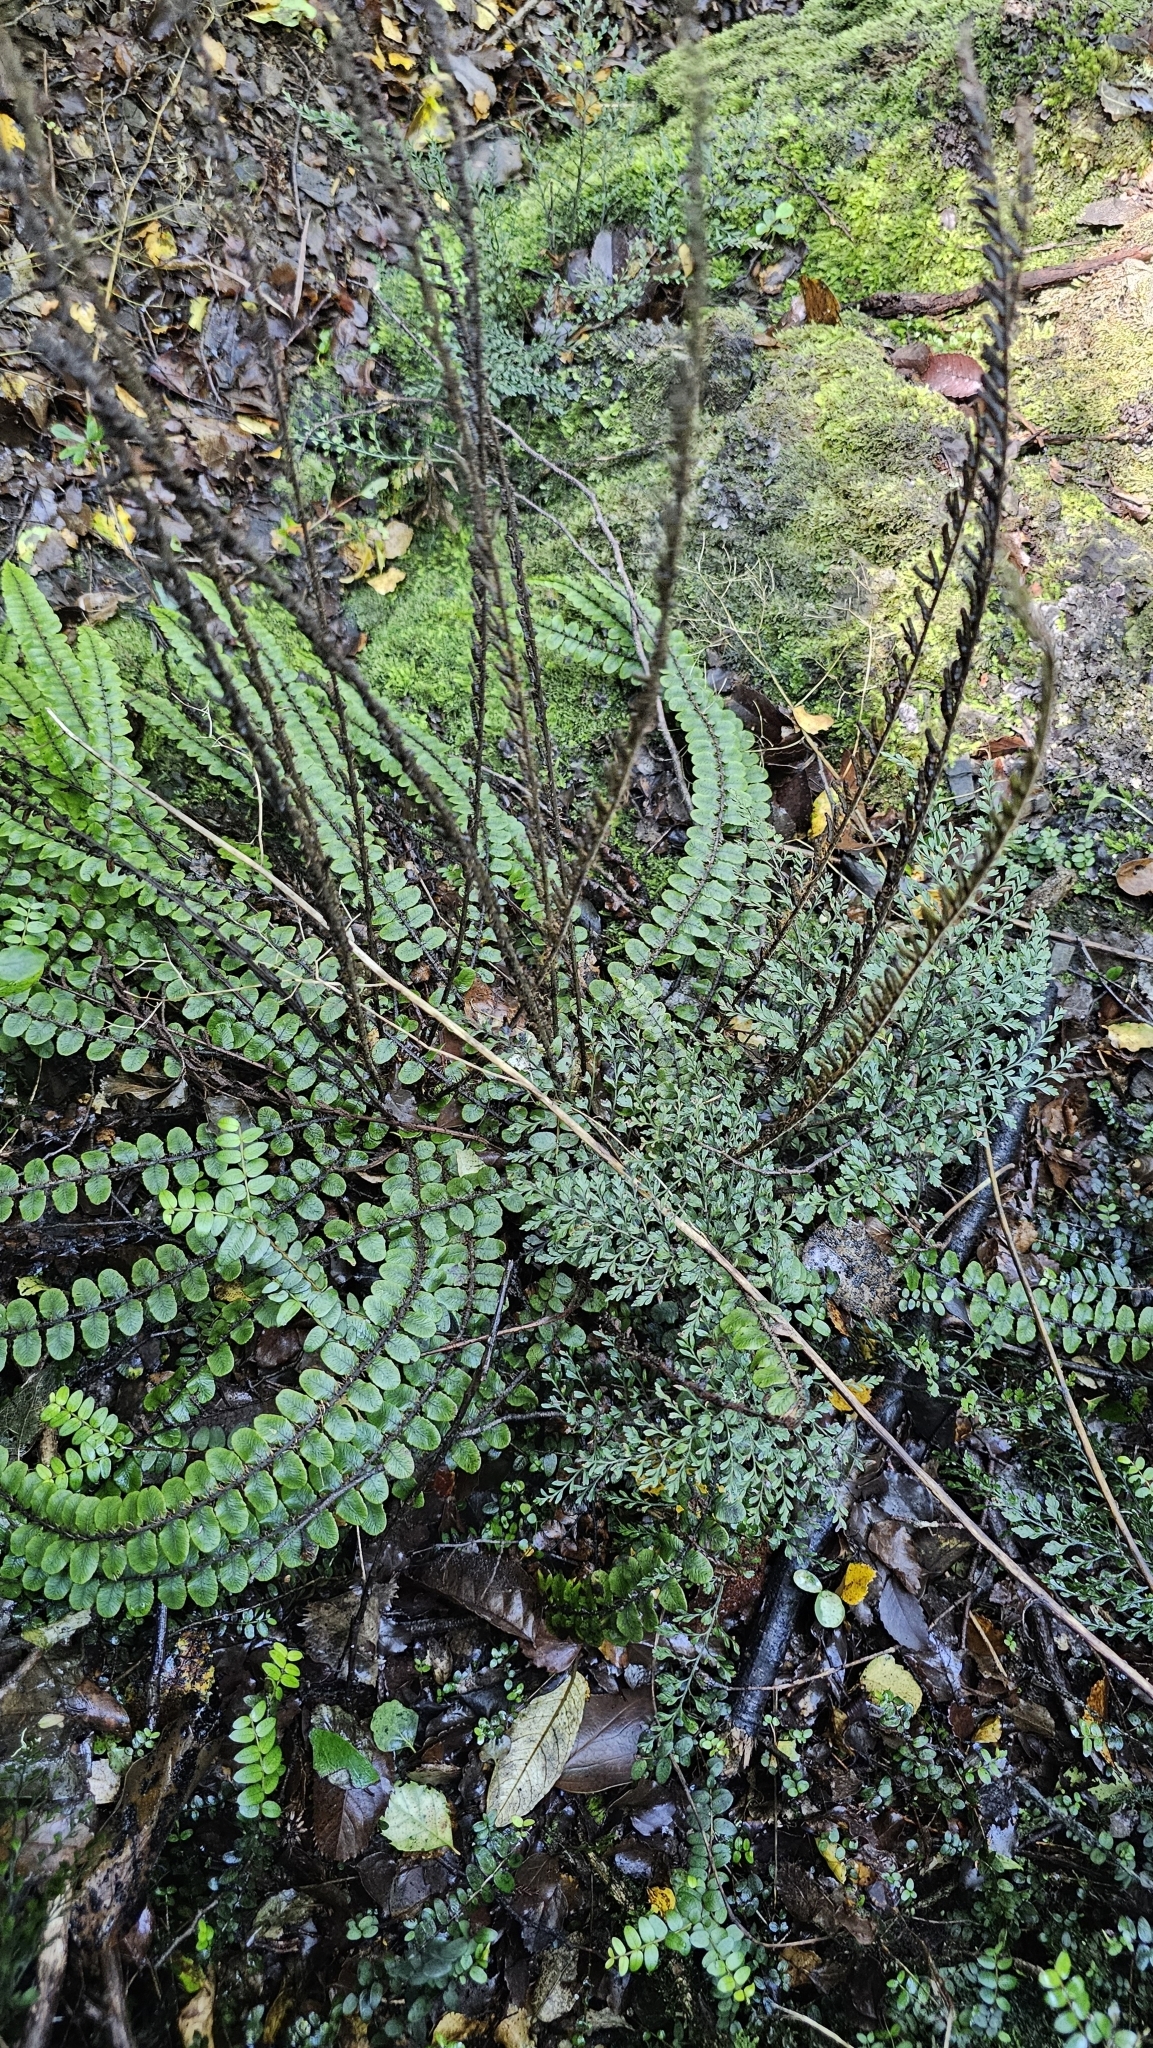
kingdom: Plantae
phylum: Tracheophyta
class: Polypodiopsida
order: Polypodiales
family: Blechnaceae
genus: Cranfillia
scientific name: Cranfillia fluviatilis
